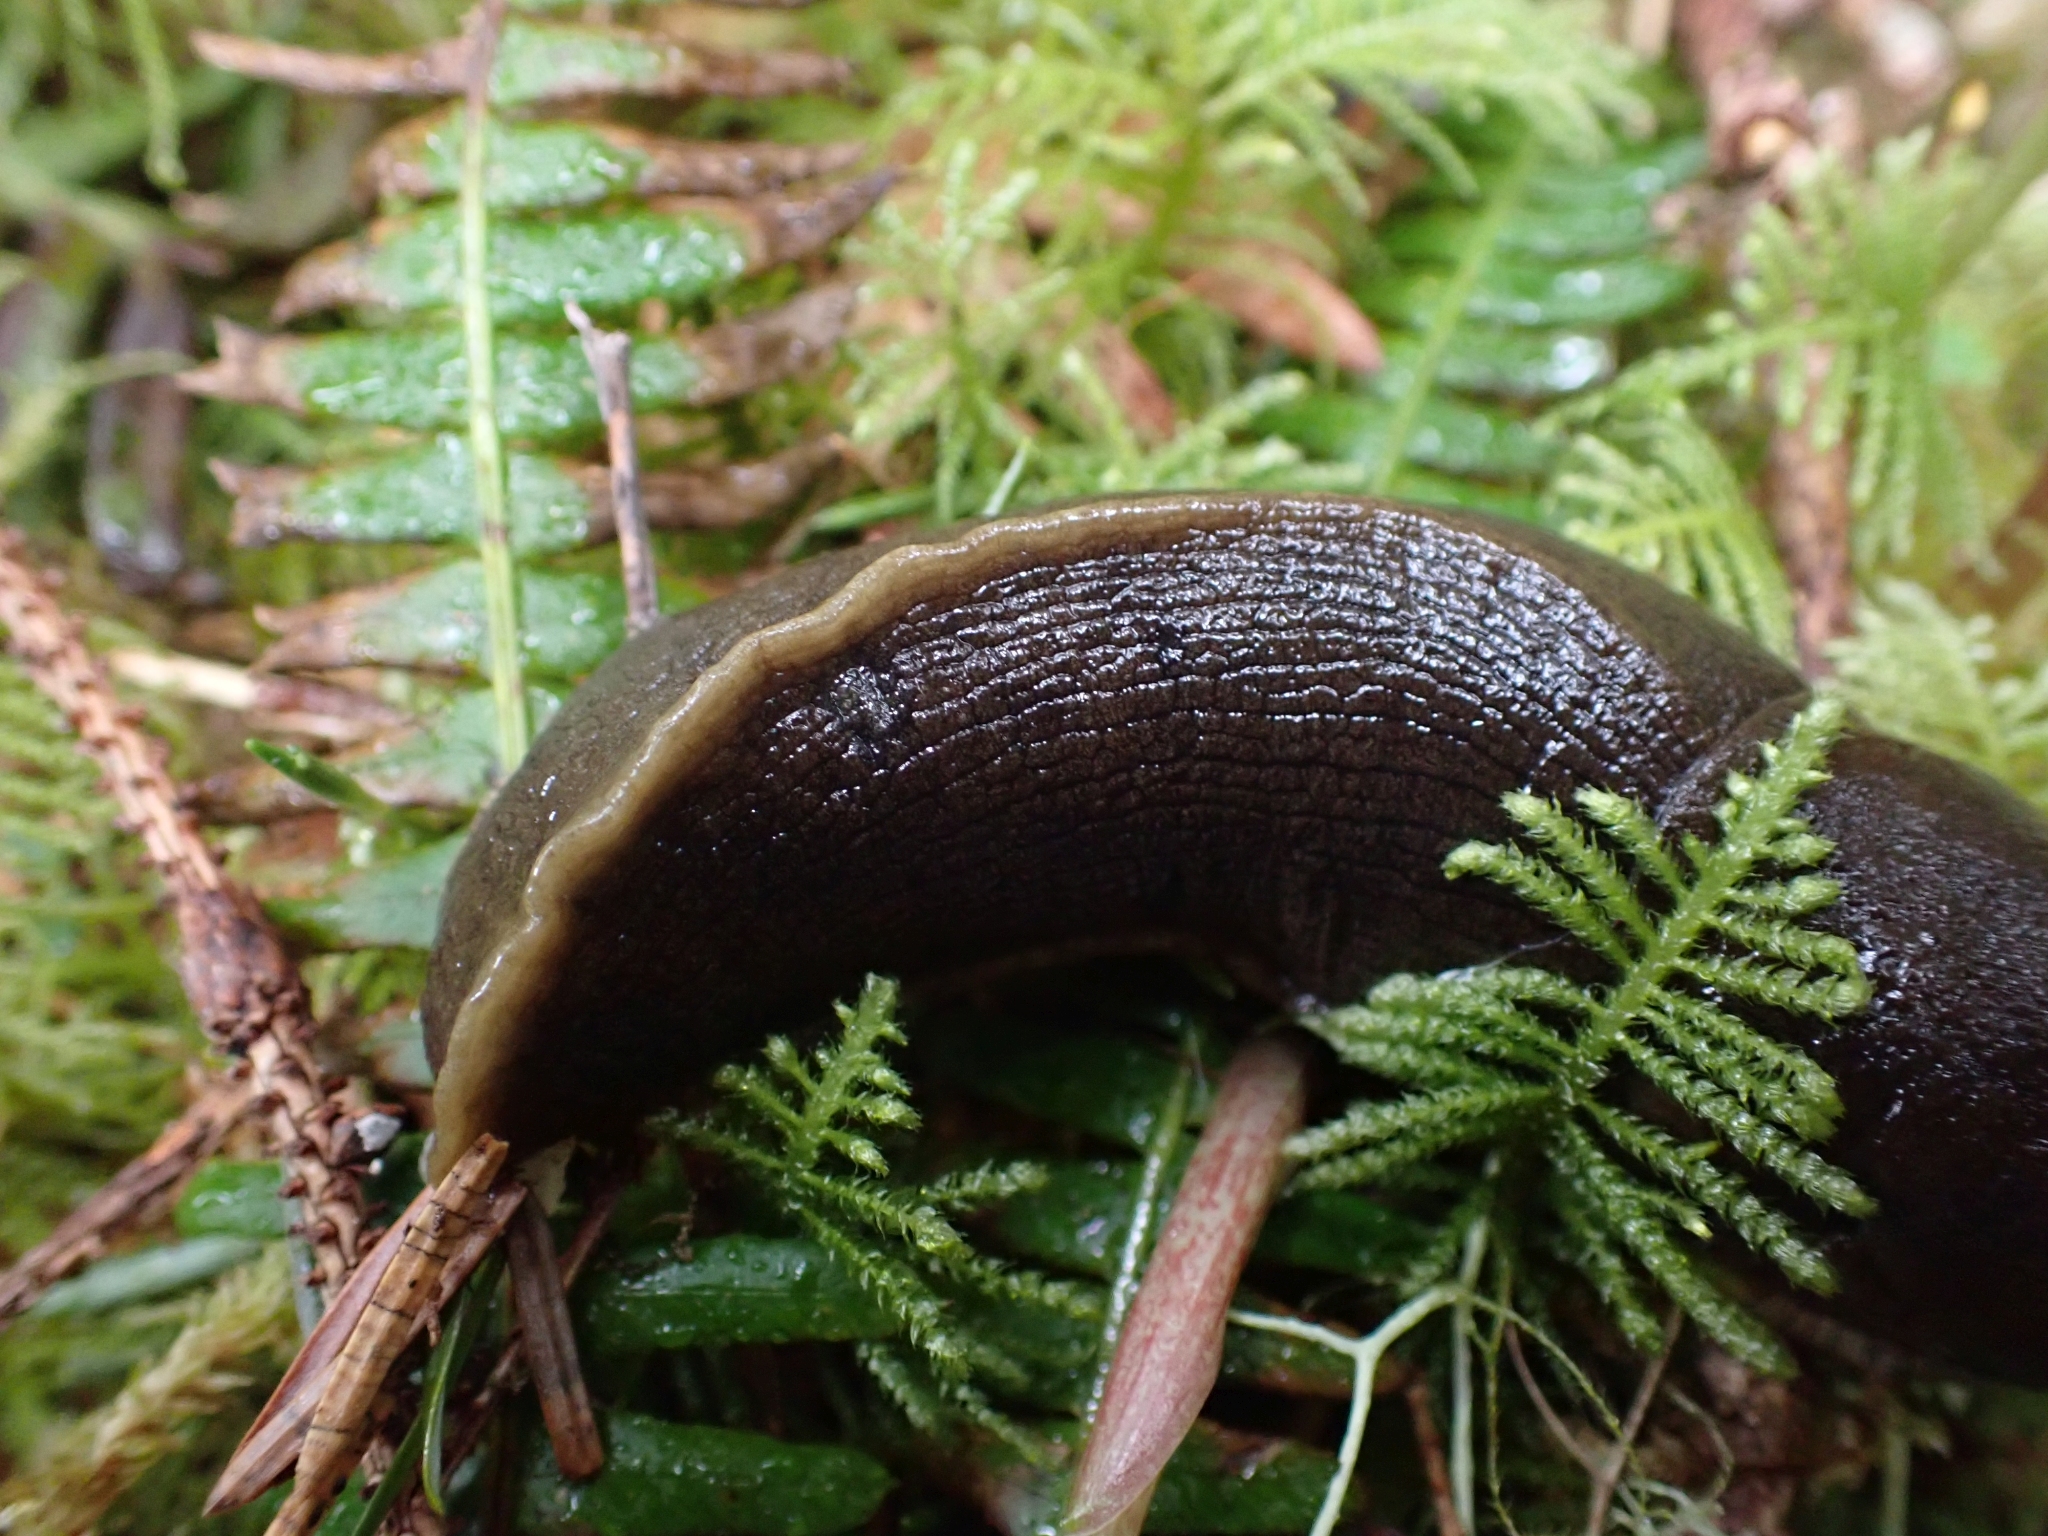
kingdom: Animalia
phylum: Mollusca
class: Gastropoda
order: Stylommatophora
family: Ariolimacidae
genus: Ariolimax
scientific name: Ariolimax columbianus
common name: Pacific banana slug
